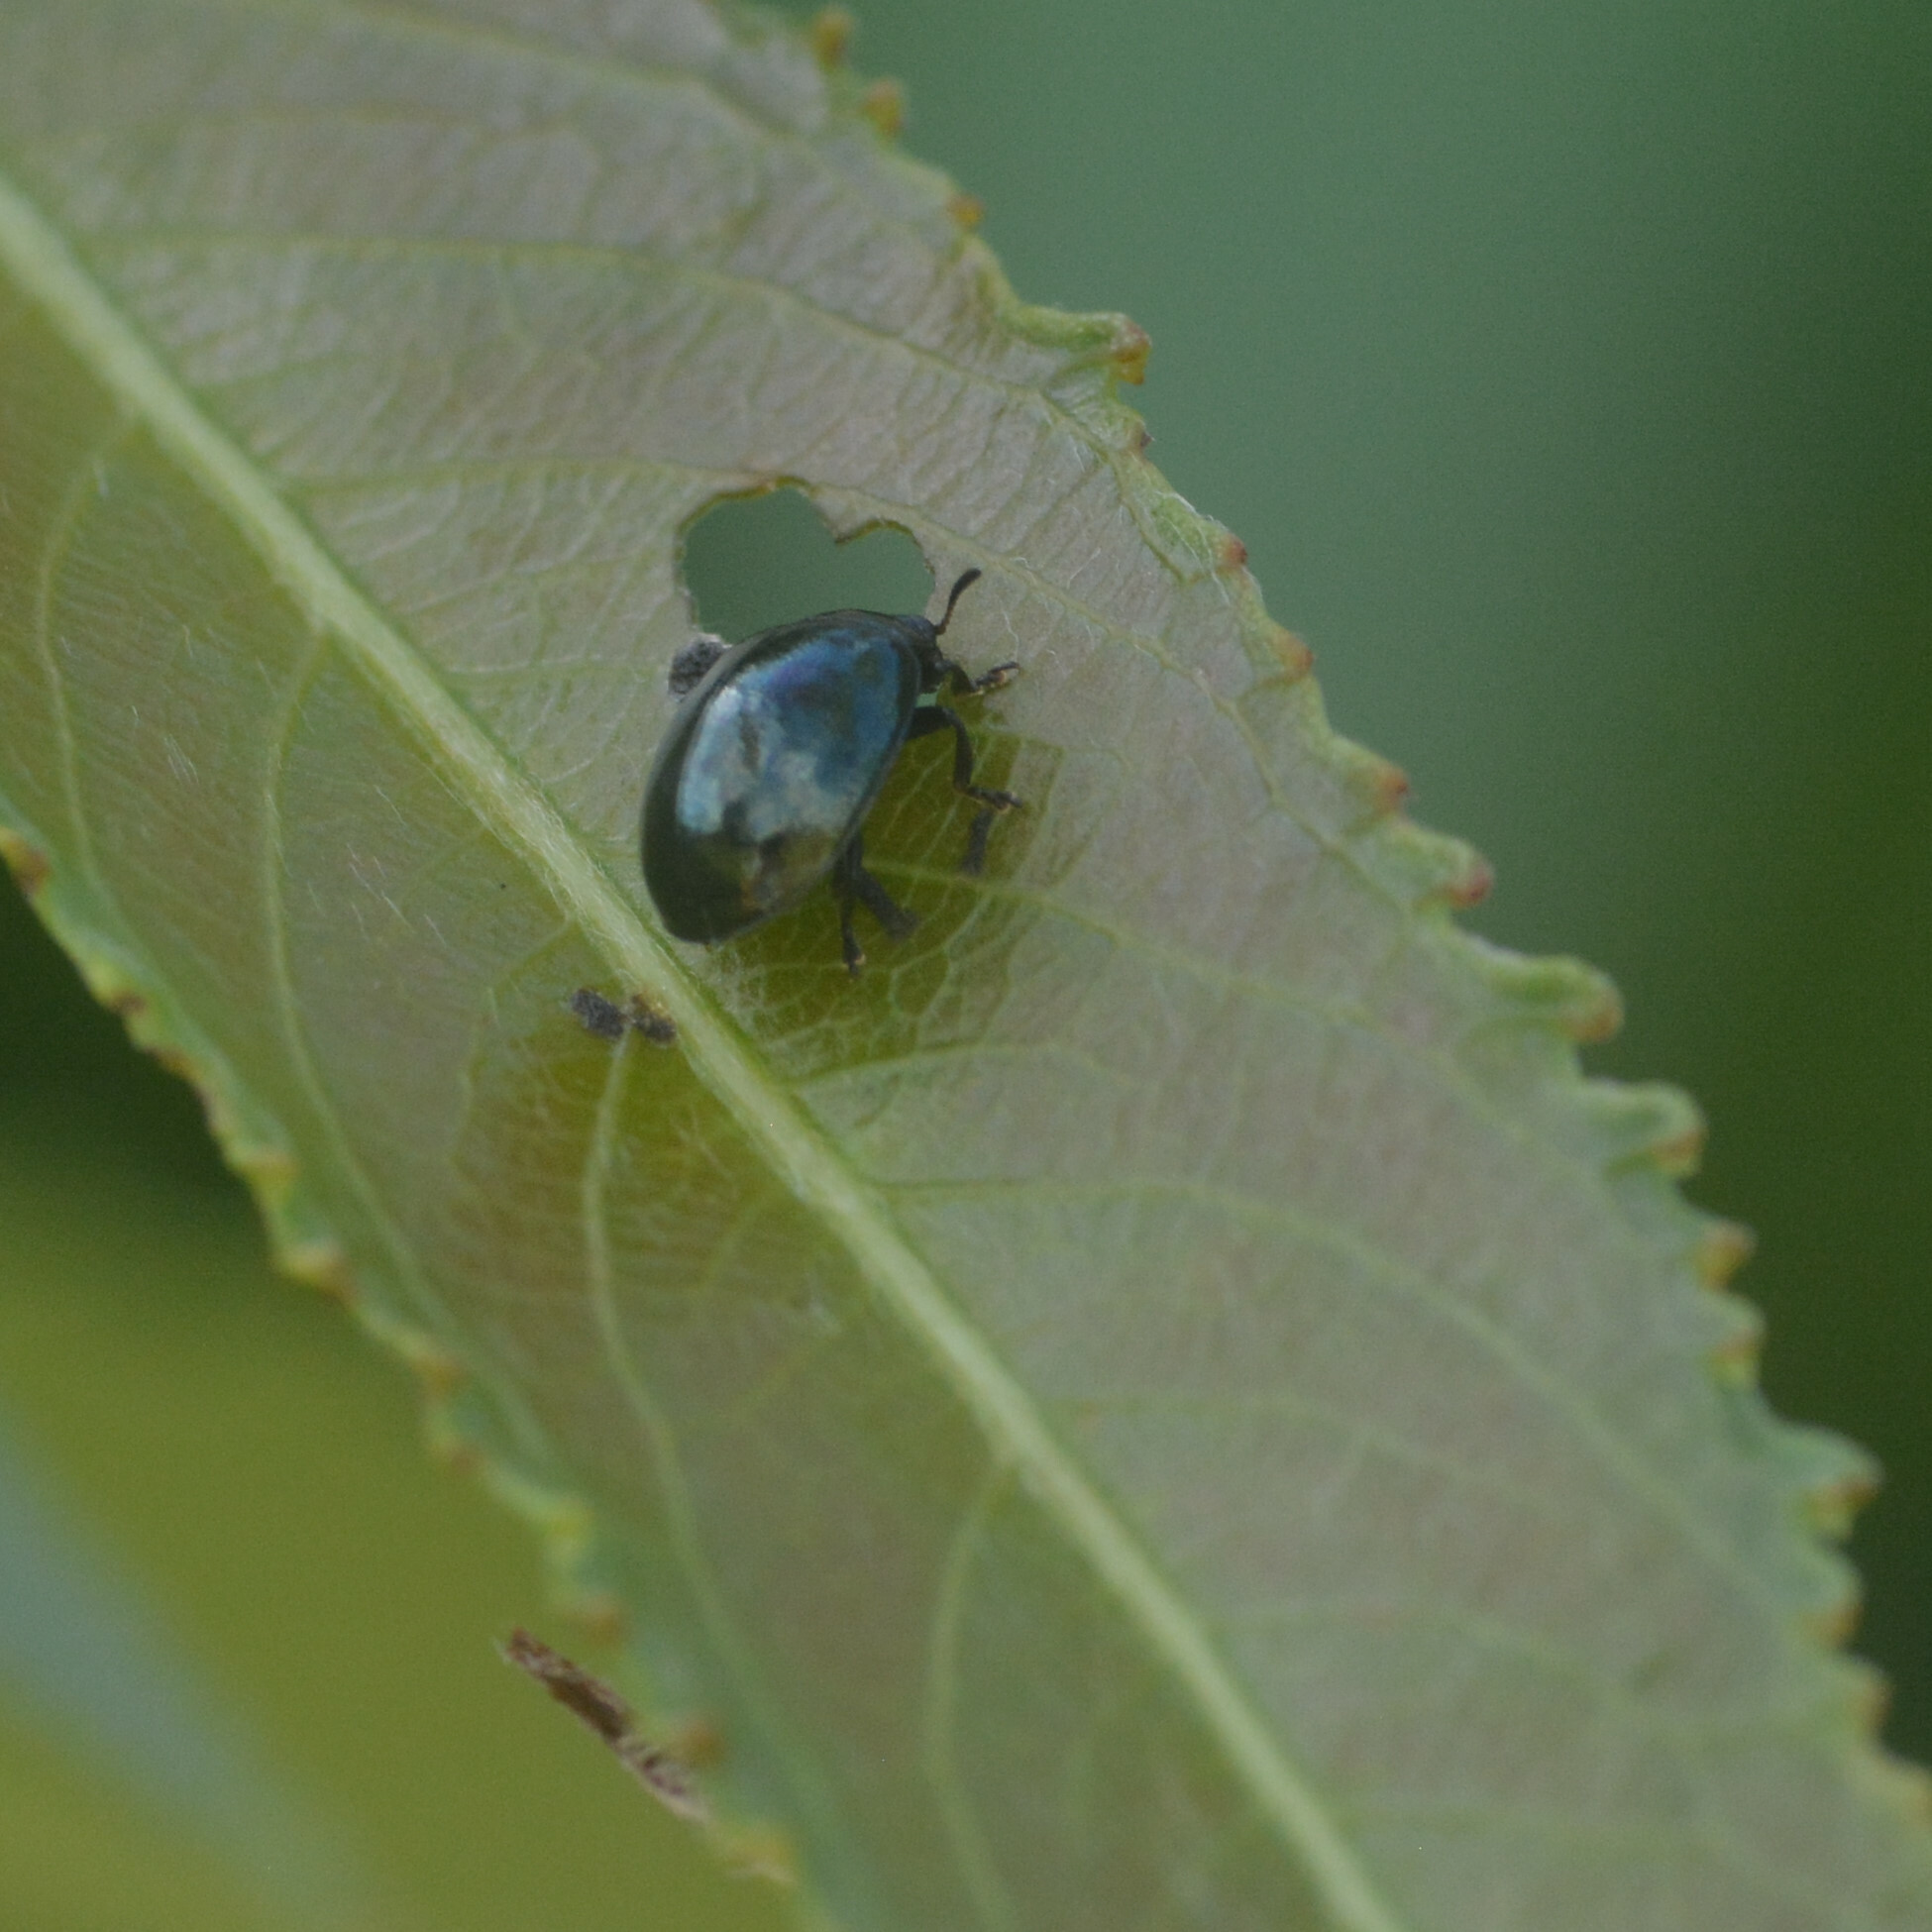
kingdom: Animalia
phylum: Arthropoda
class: Insecta
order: Coleoptera
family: Chrysomelidae
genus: Plagiodera
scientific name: Plagiodera versicolora
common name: Imported willow leaf beetle
